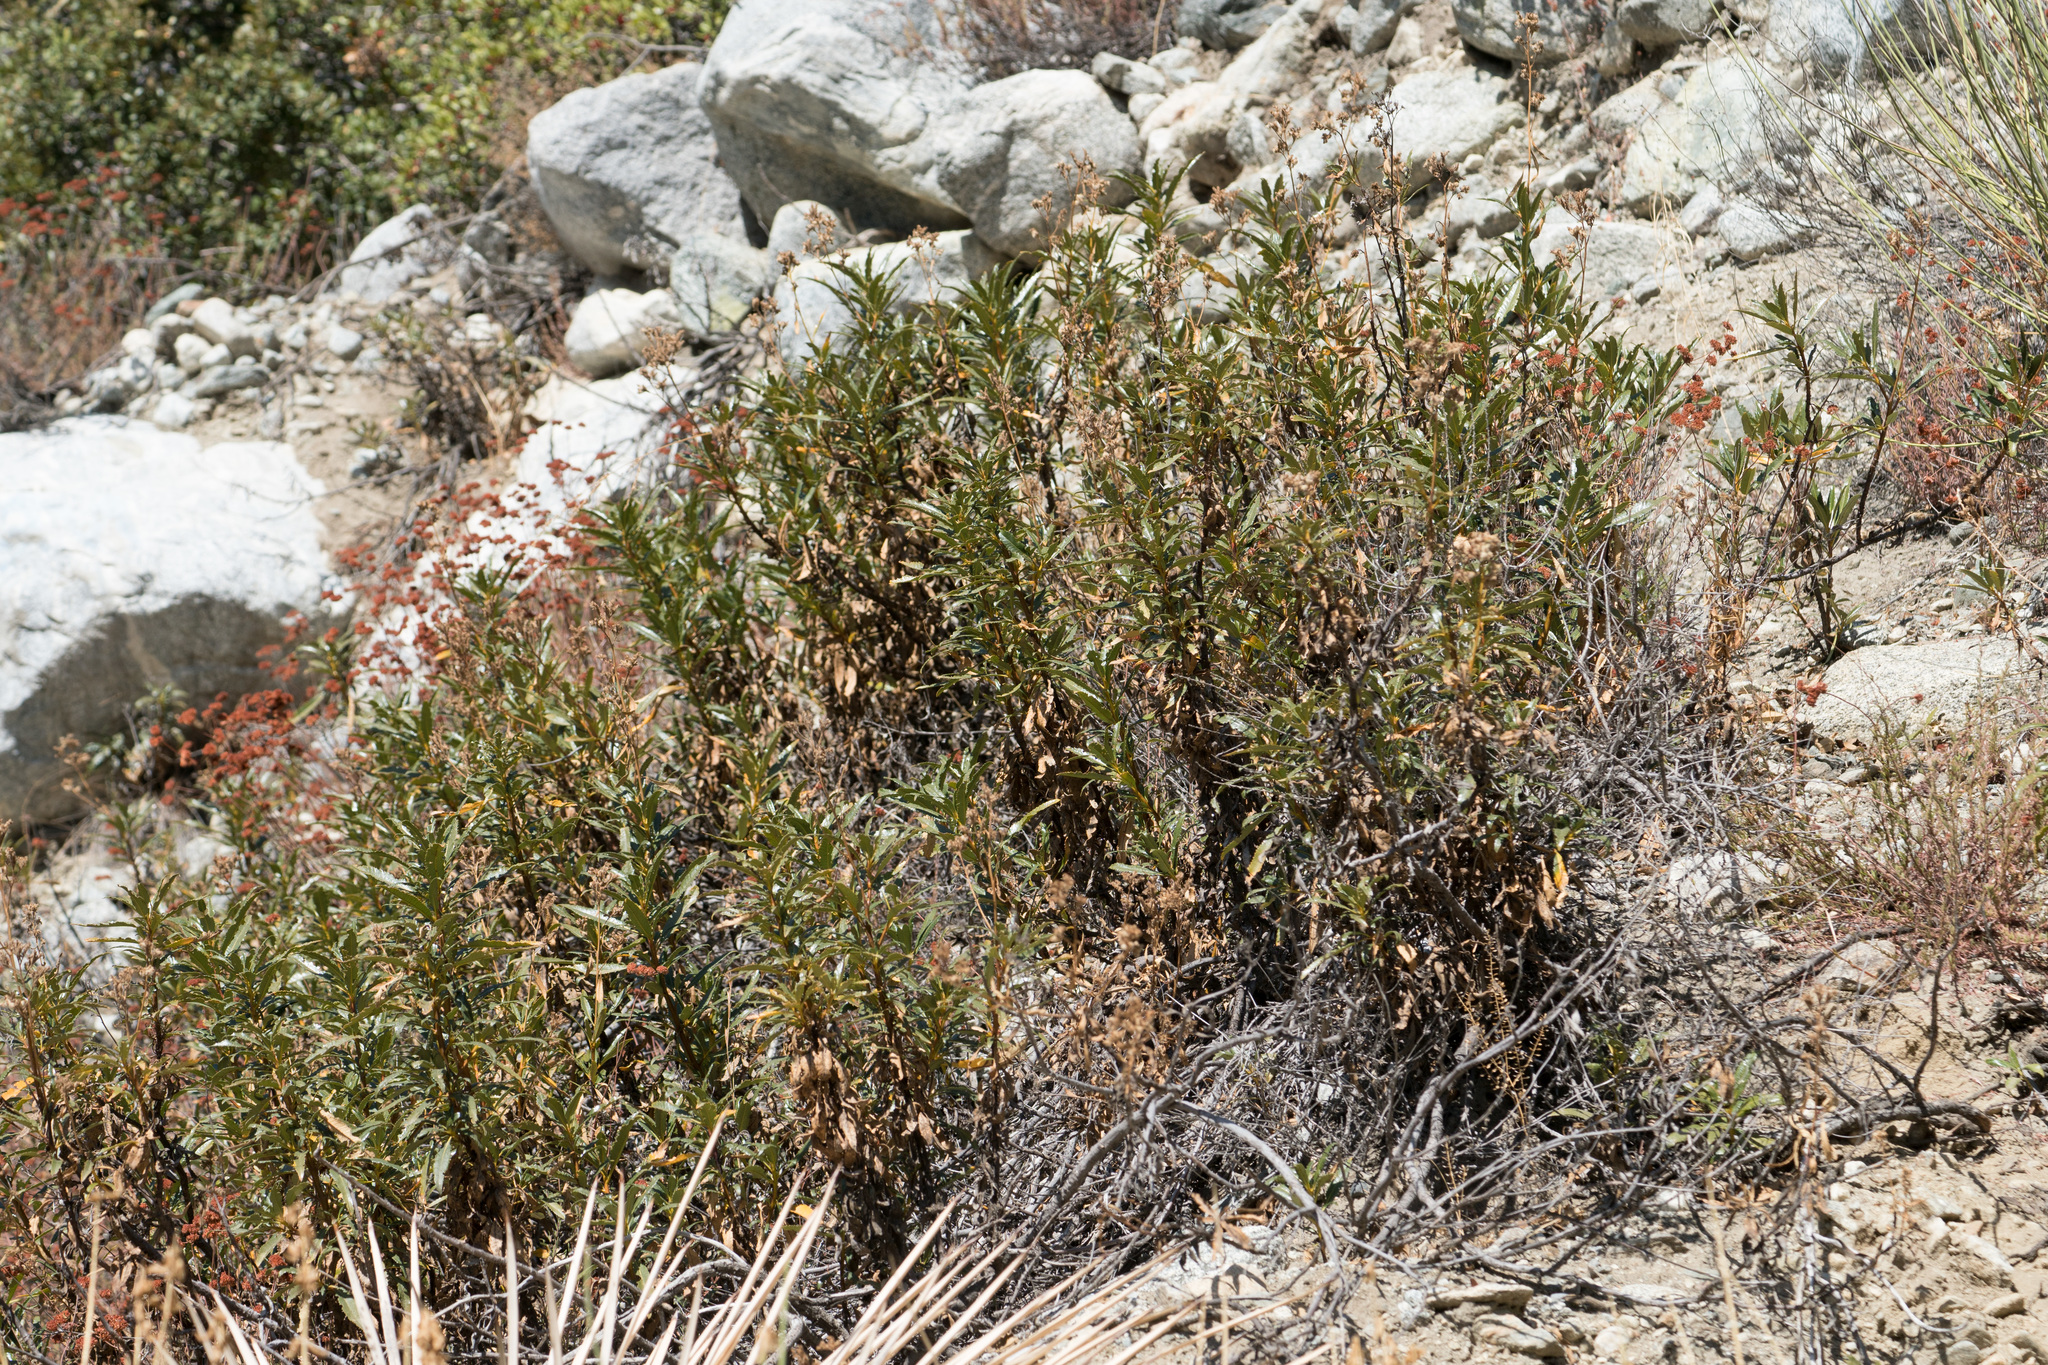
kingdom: Plantae
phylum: Tracheophyta
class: Magnoliopsida
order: Boraginales
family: Namaceae
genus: Eriodictyon
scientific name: Eriodictyon trichocalyx
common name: Hairy yerba-santa
